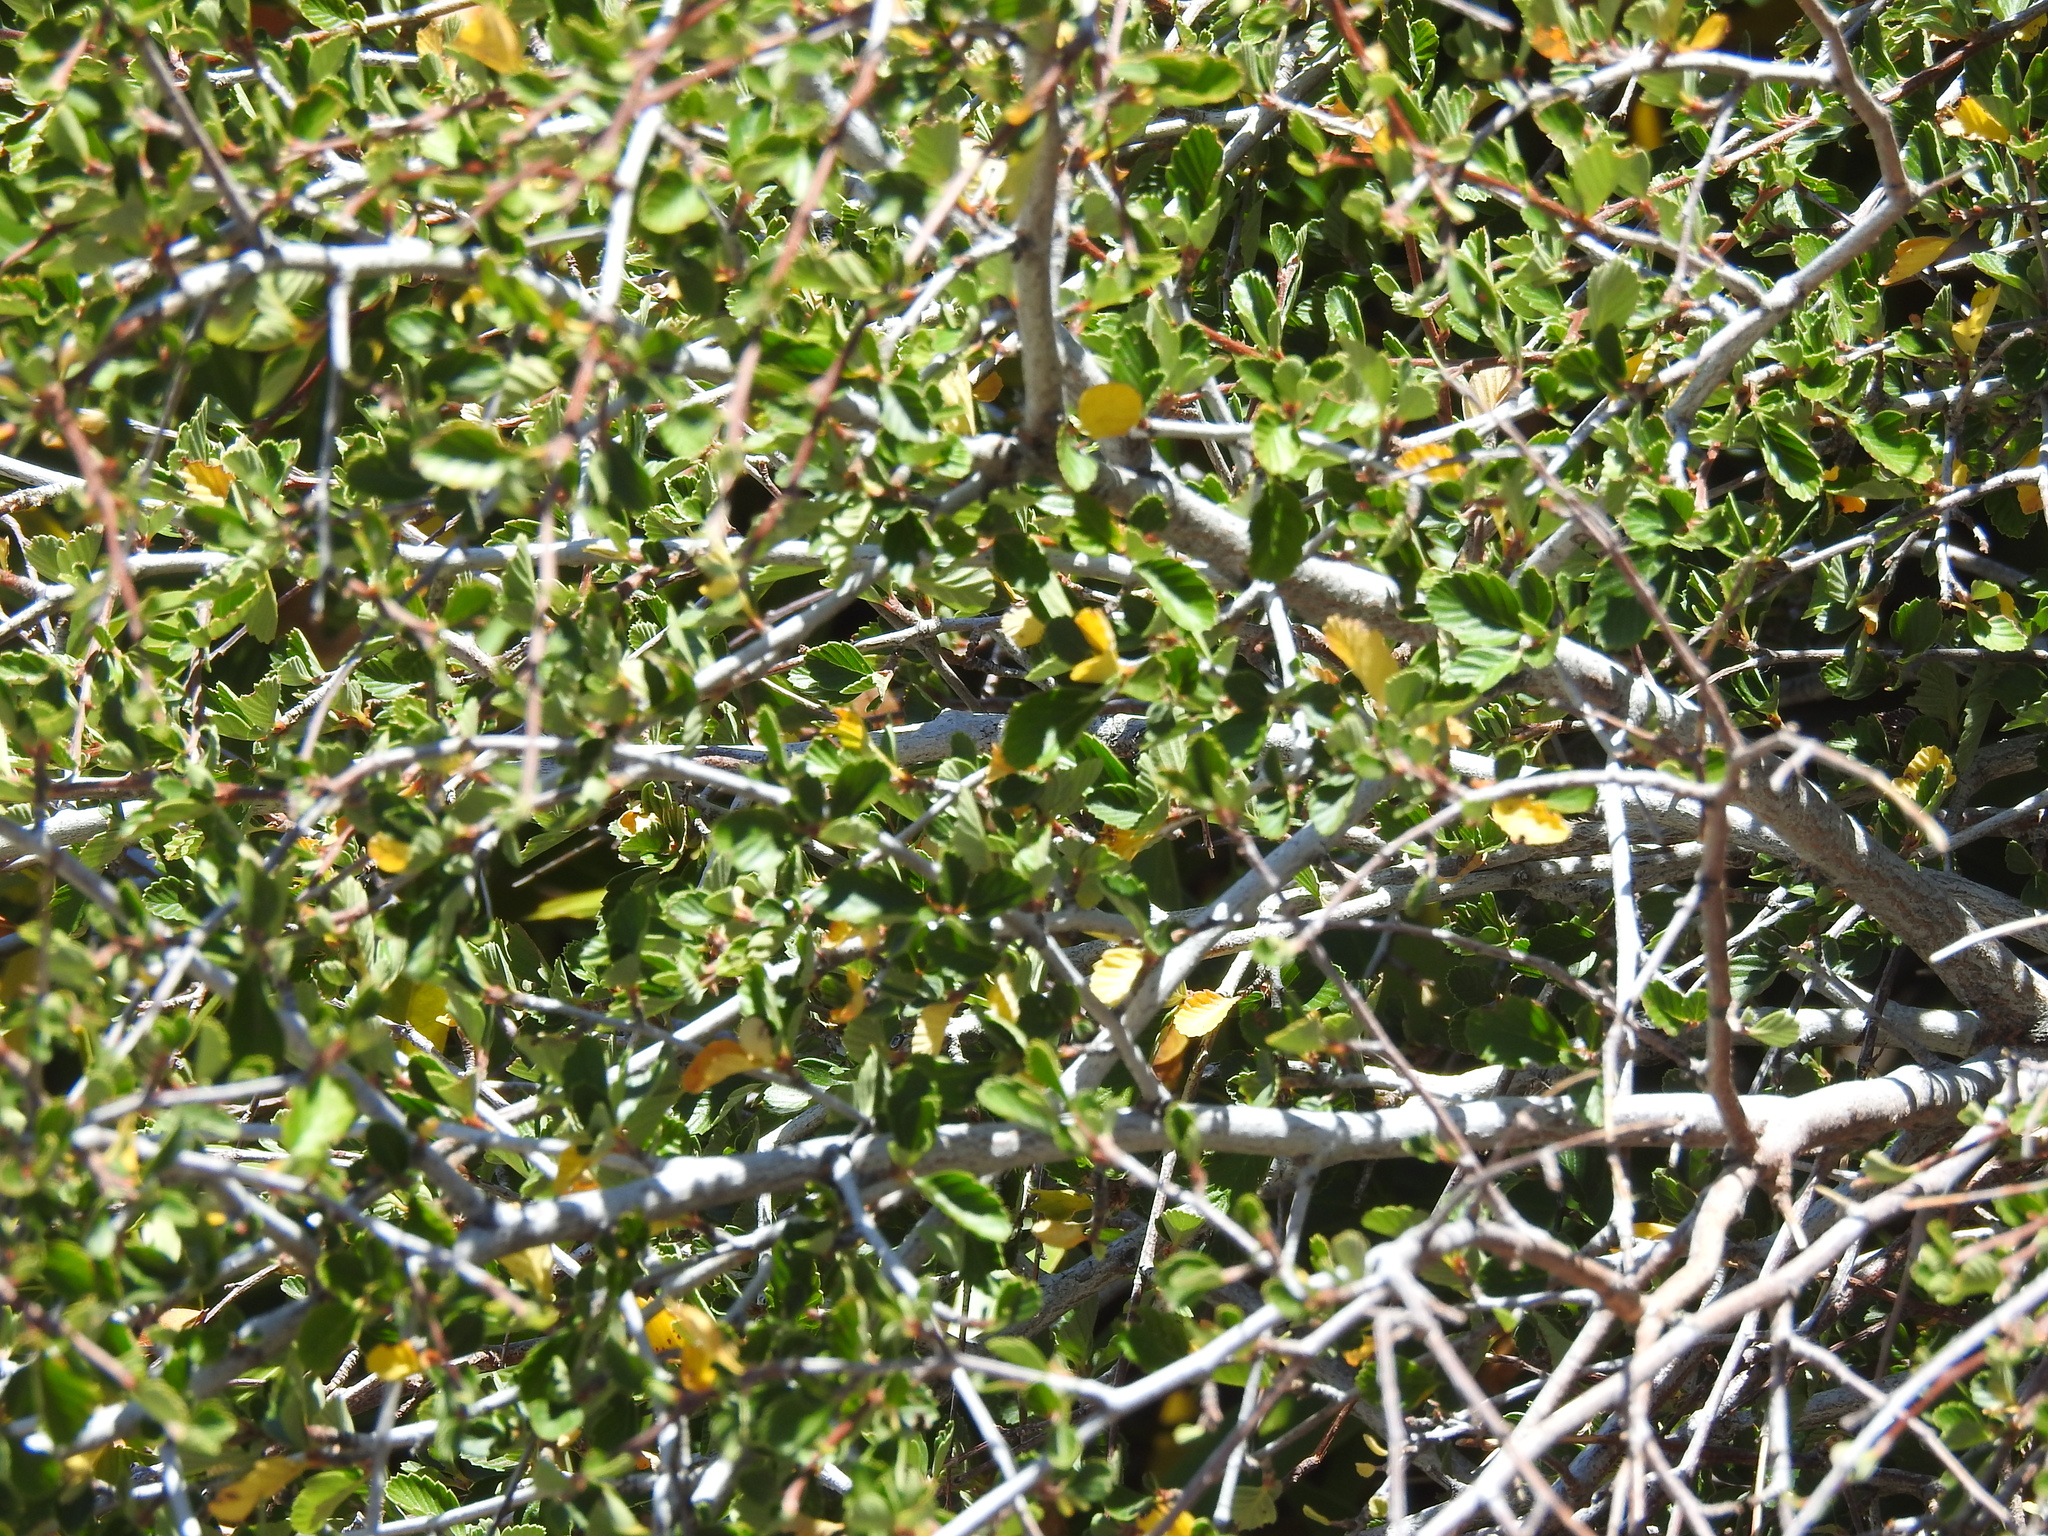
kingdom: Plantae
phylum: Tracheophyta
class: Magnoliopsida
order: Rosales
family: Rosaceae
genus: Cercocarpus
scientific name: Cercocarpus betuloides
